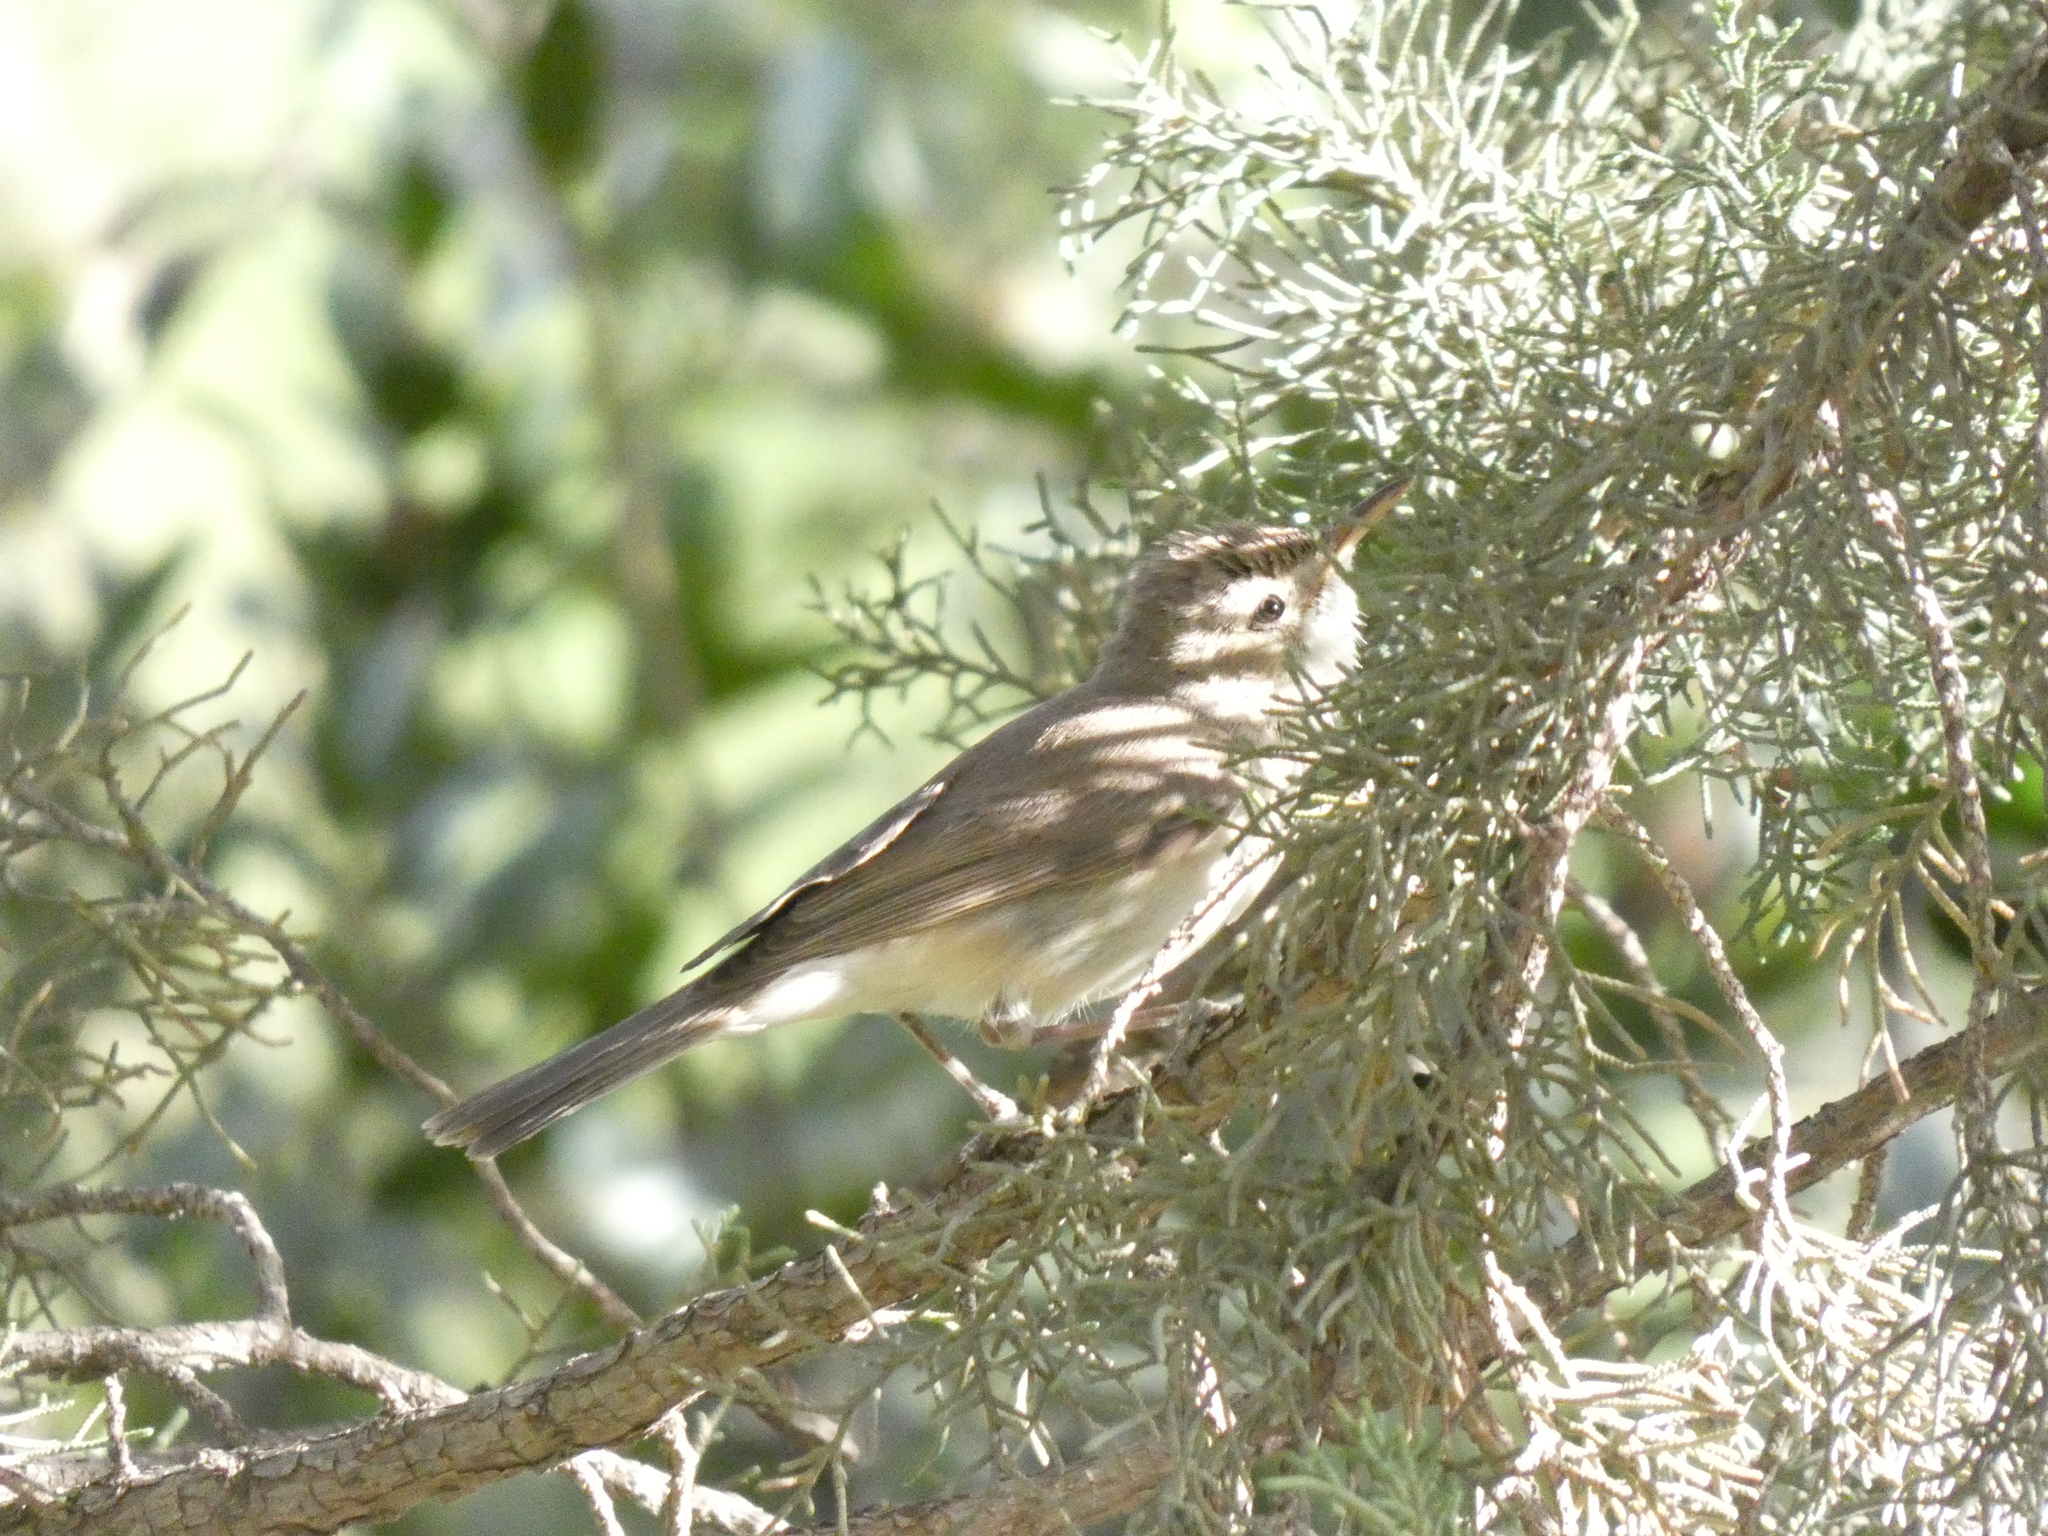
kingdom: Animalia
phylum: Chordata
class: Aves
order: Passeriformes
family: Acrocephalidae
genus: Hippolais
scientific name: Hippolais polyglotta
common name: Melodious warbler
